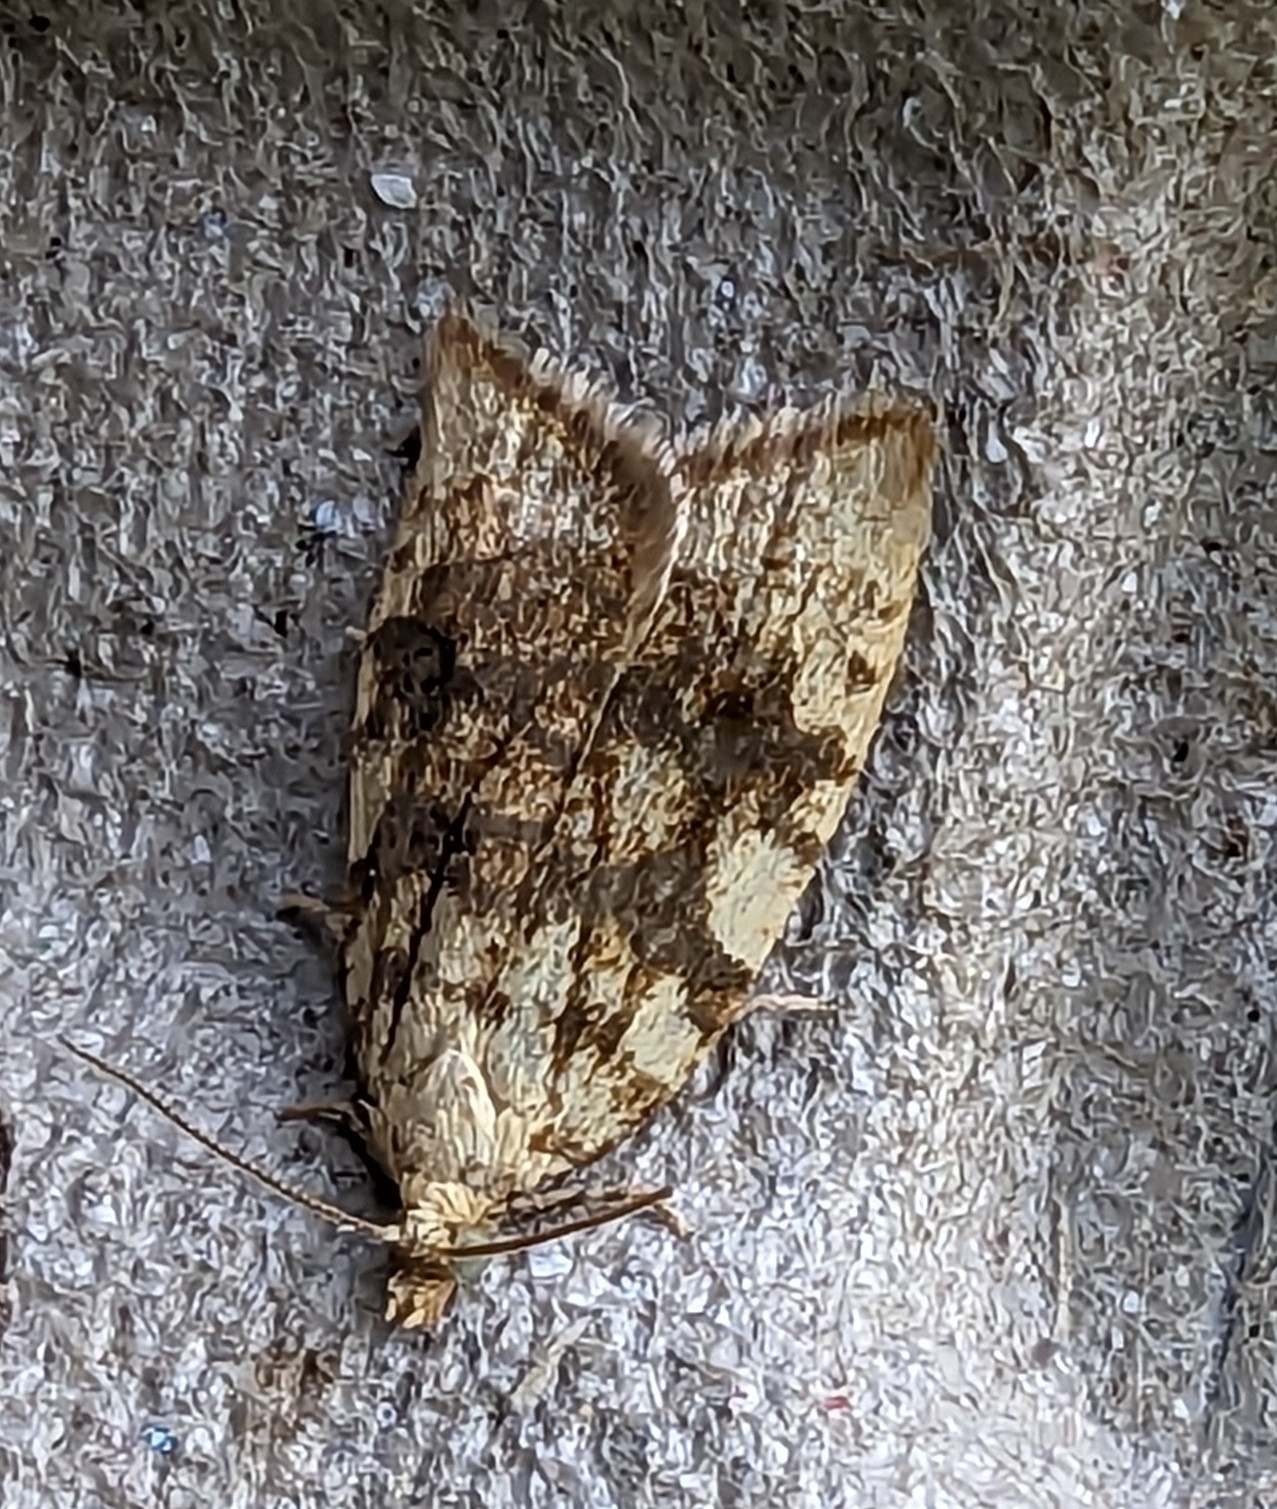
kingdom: Animalia
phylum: Arthropoda
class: Insecta
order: Lepidoptera
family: Tortricidae
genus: Aleimma
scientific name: Aleimma loeflingiana
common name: Yellow oak button
